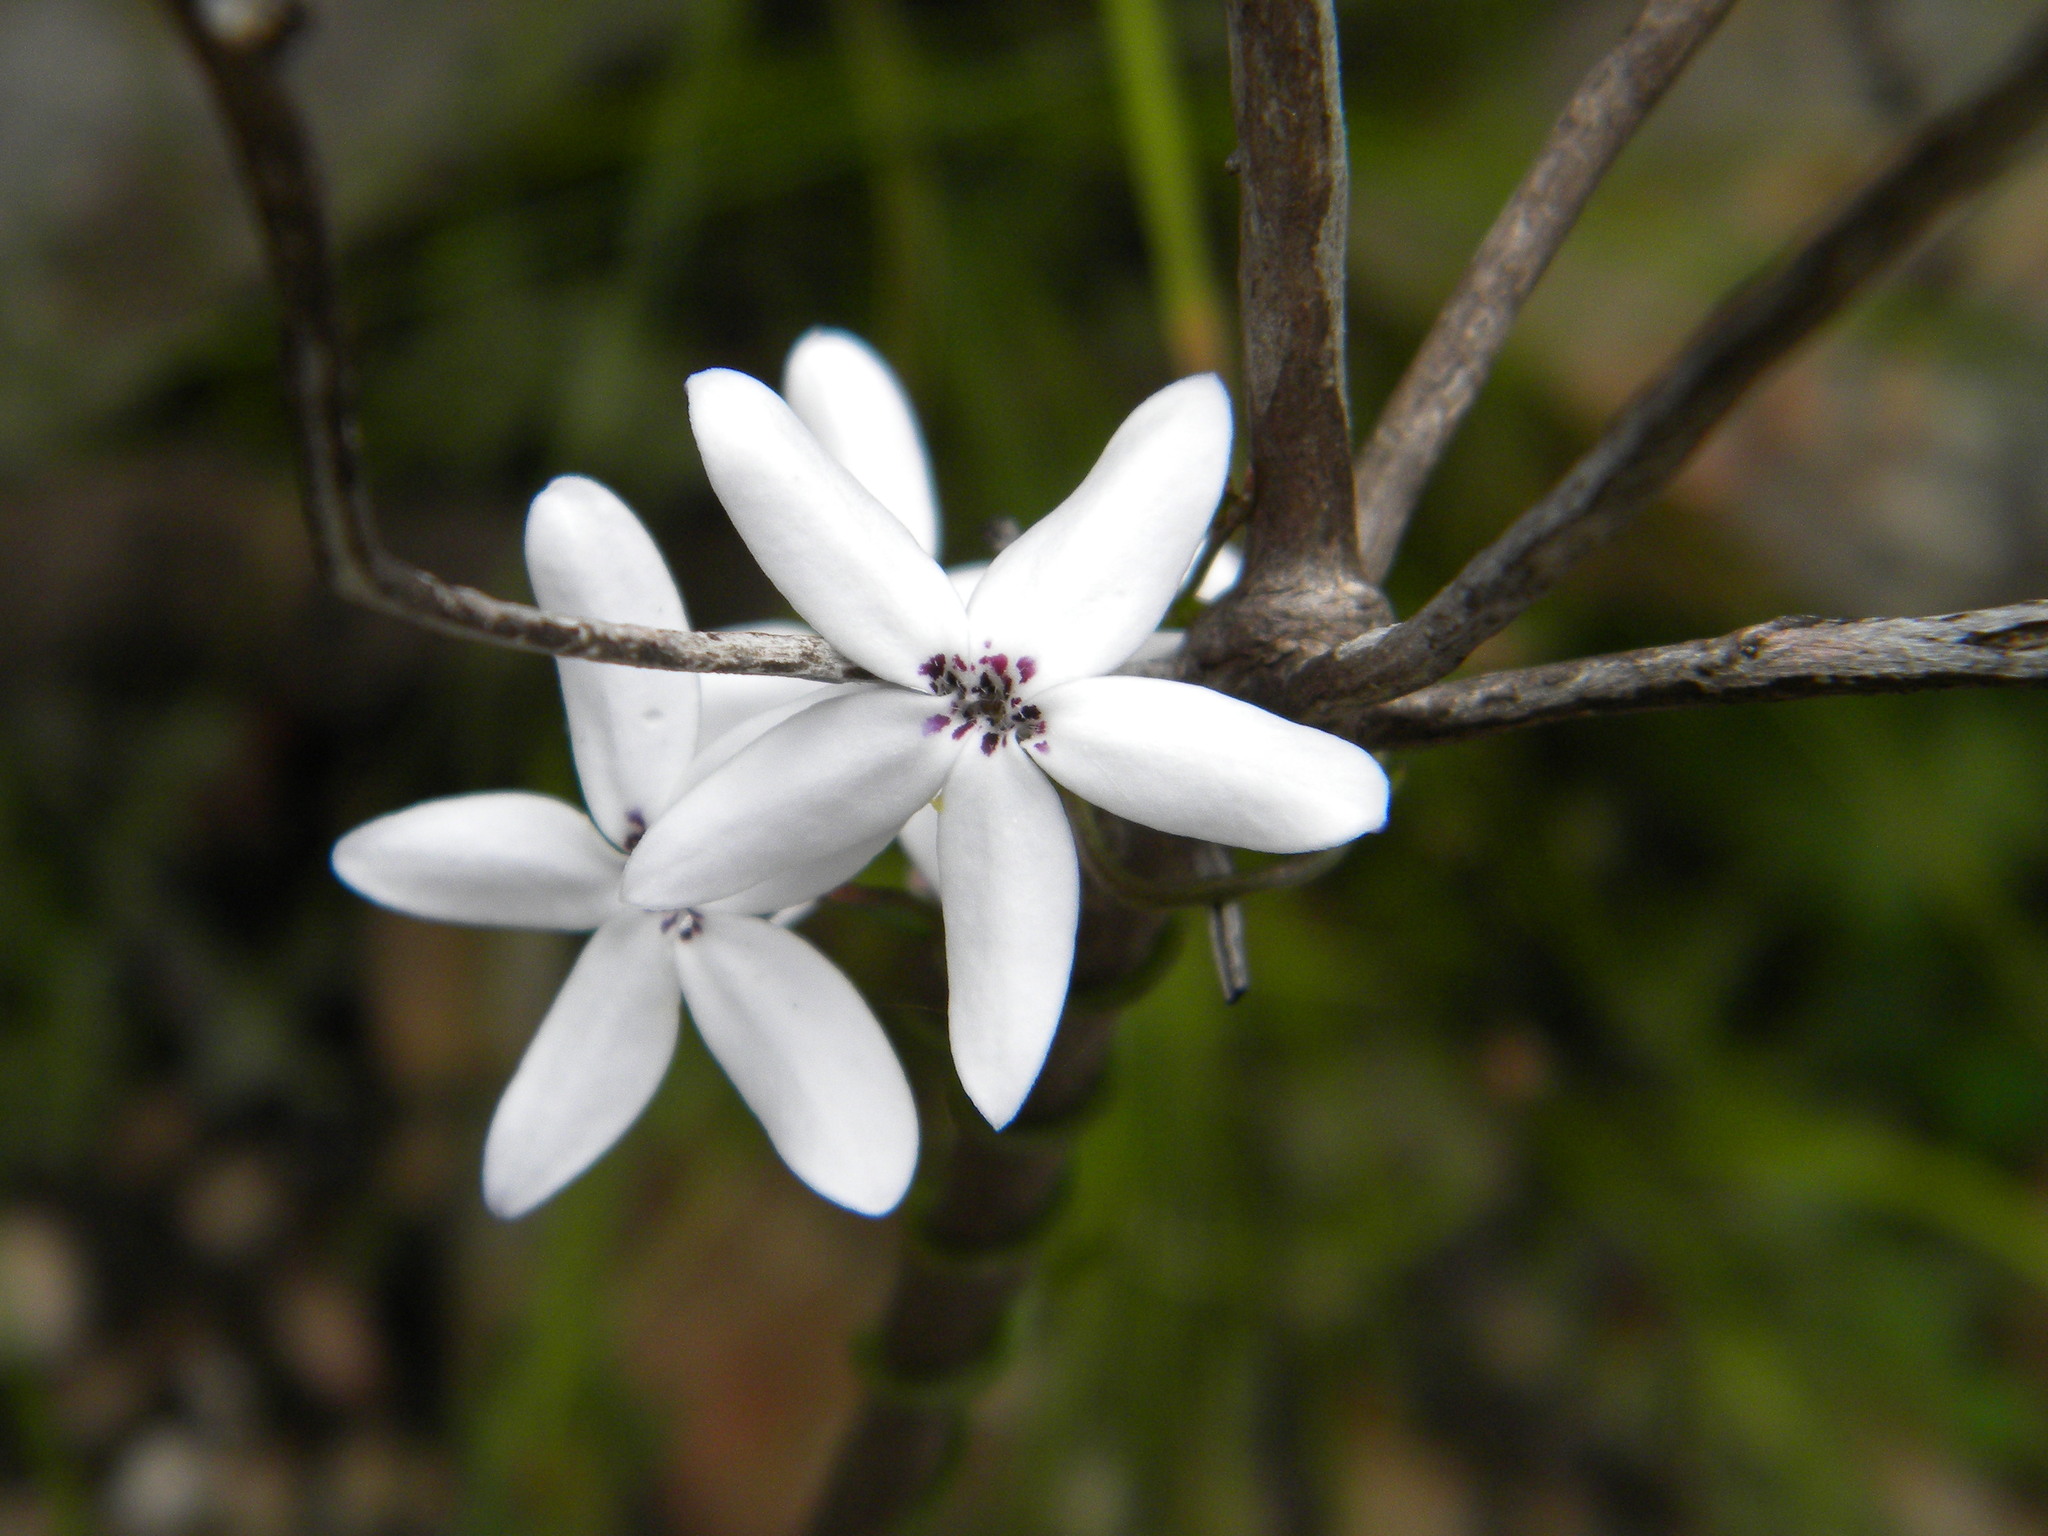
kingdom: Plantae
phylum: Tracheophyta
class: Magnoliopsida
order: Asterales
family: Campanulaceae
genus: Cyphia
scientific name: Cyphia volubilis
